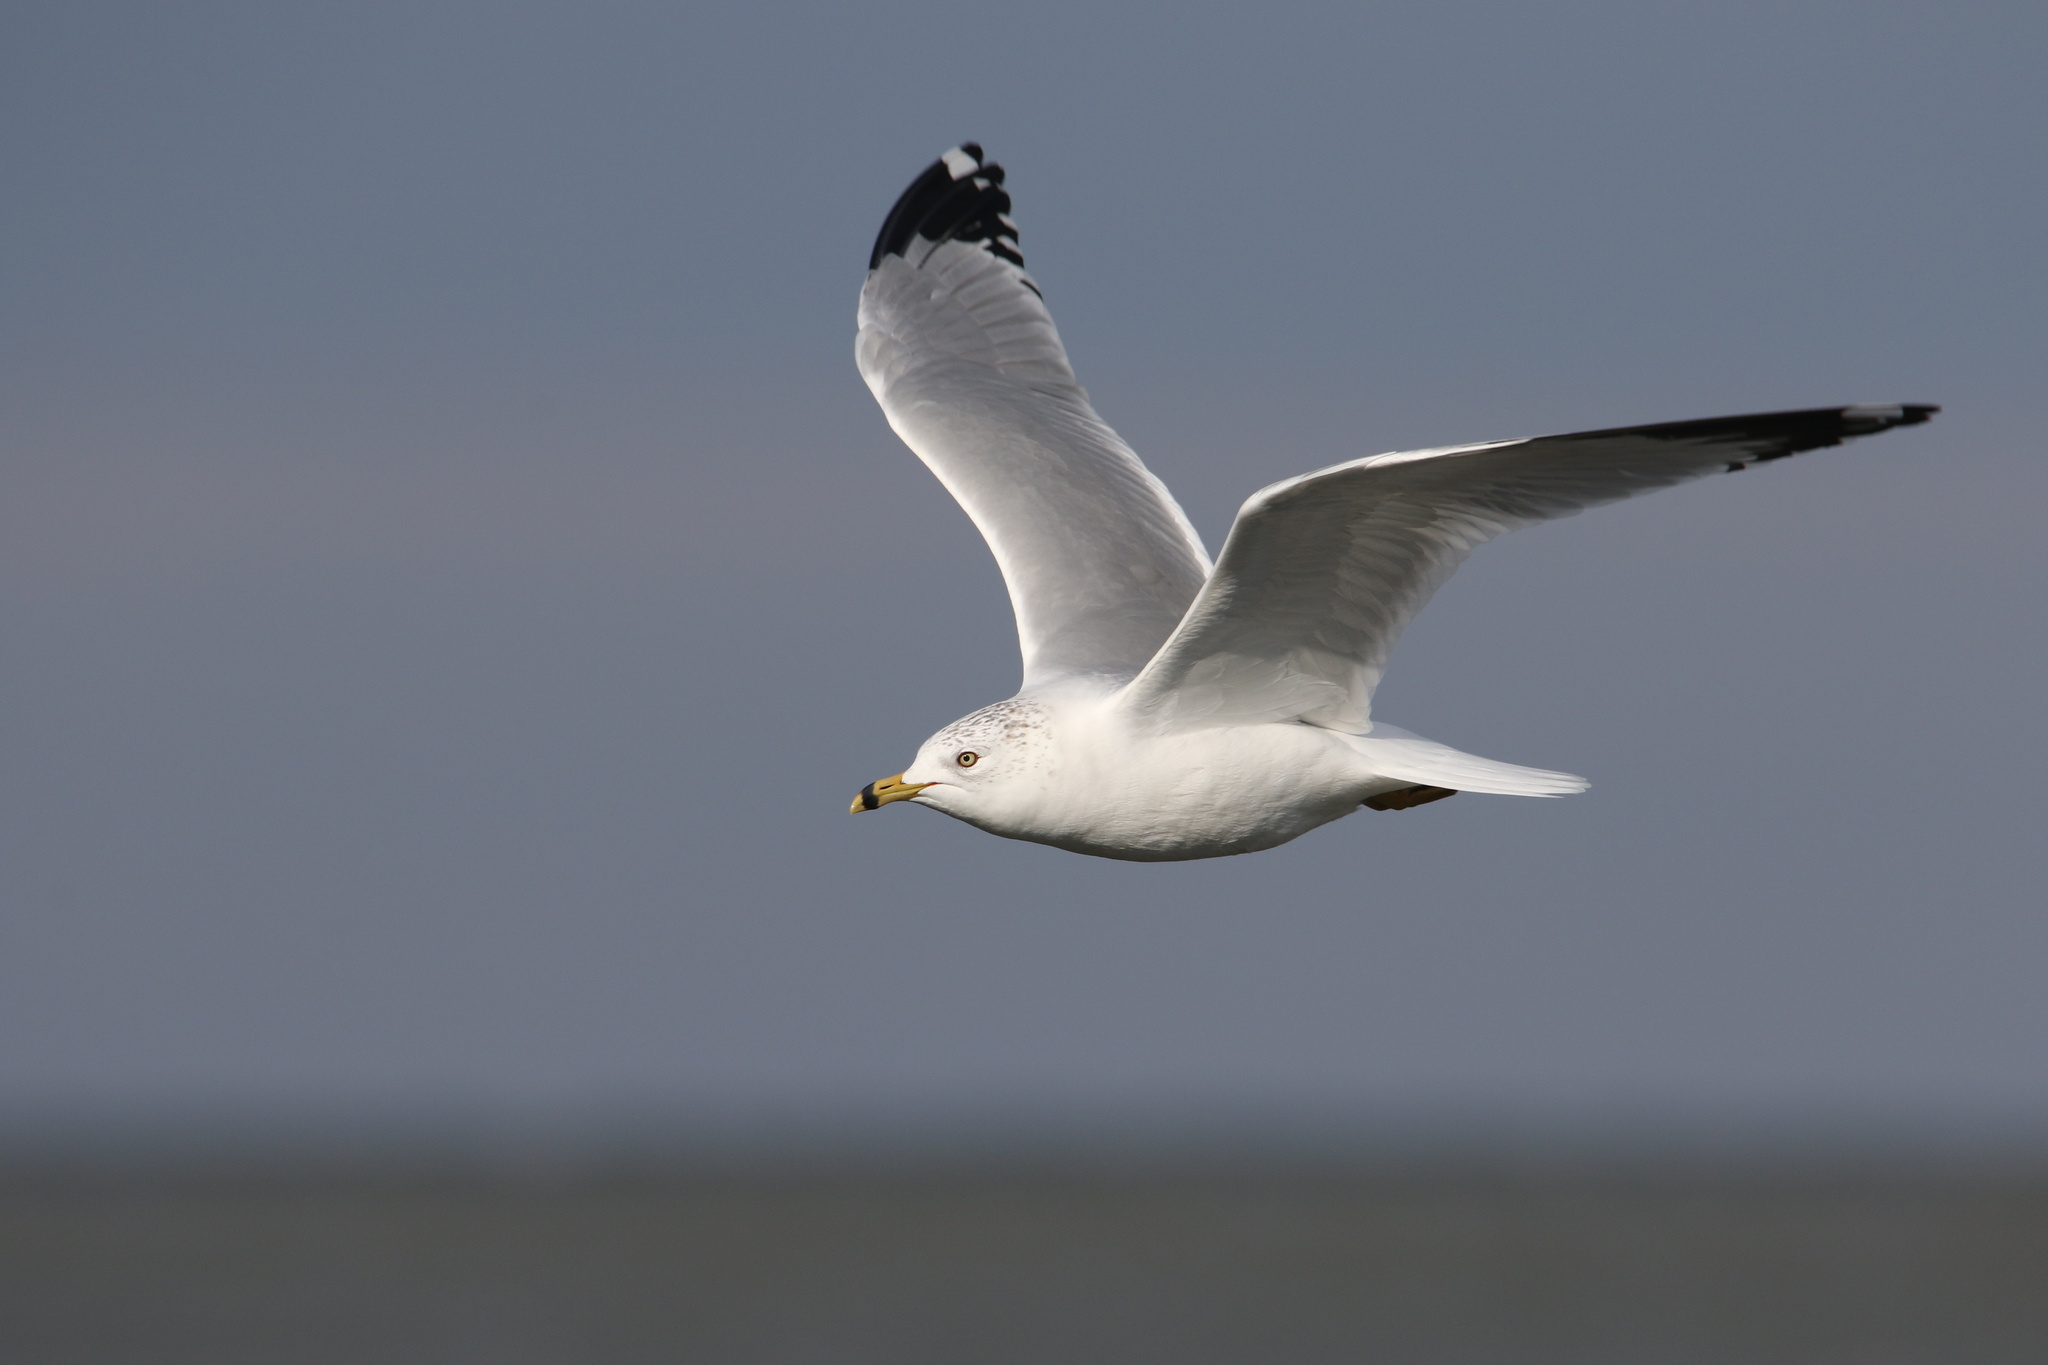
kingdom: Animalia
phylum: Chordata
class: Aves
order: Charadriiformes
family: Laridae
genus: Larus
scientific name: Larus delawarensis
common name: Ring-billed gull
